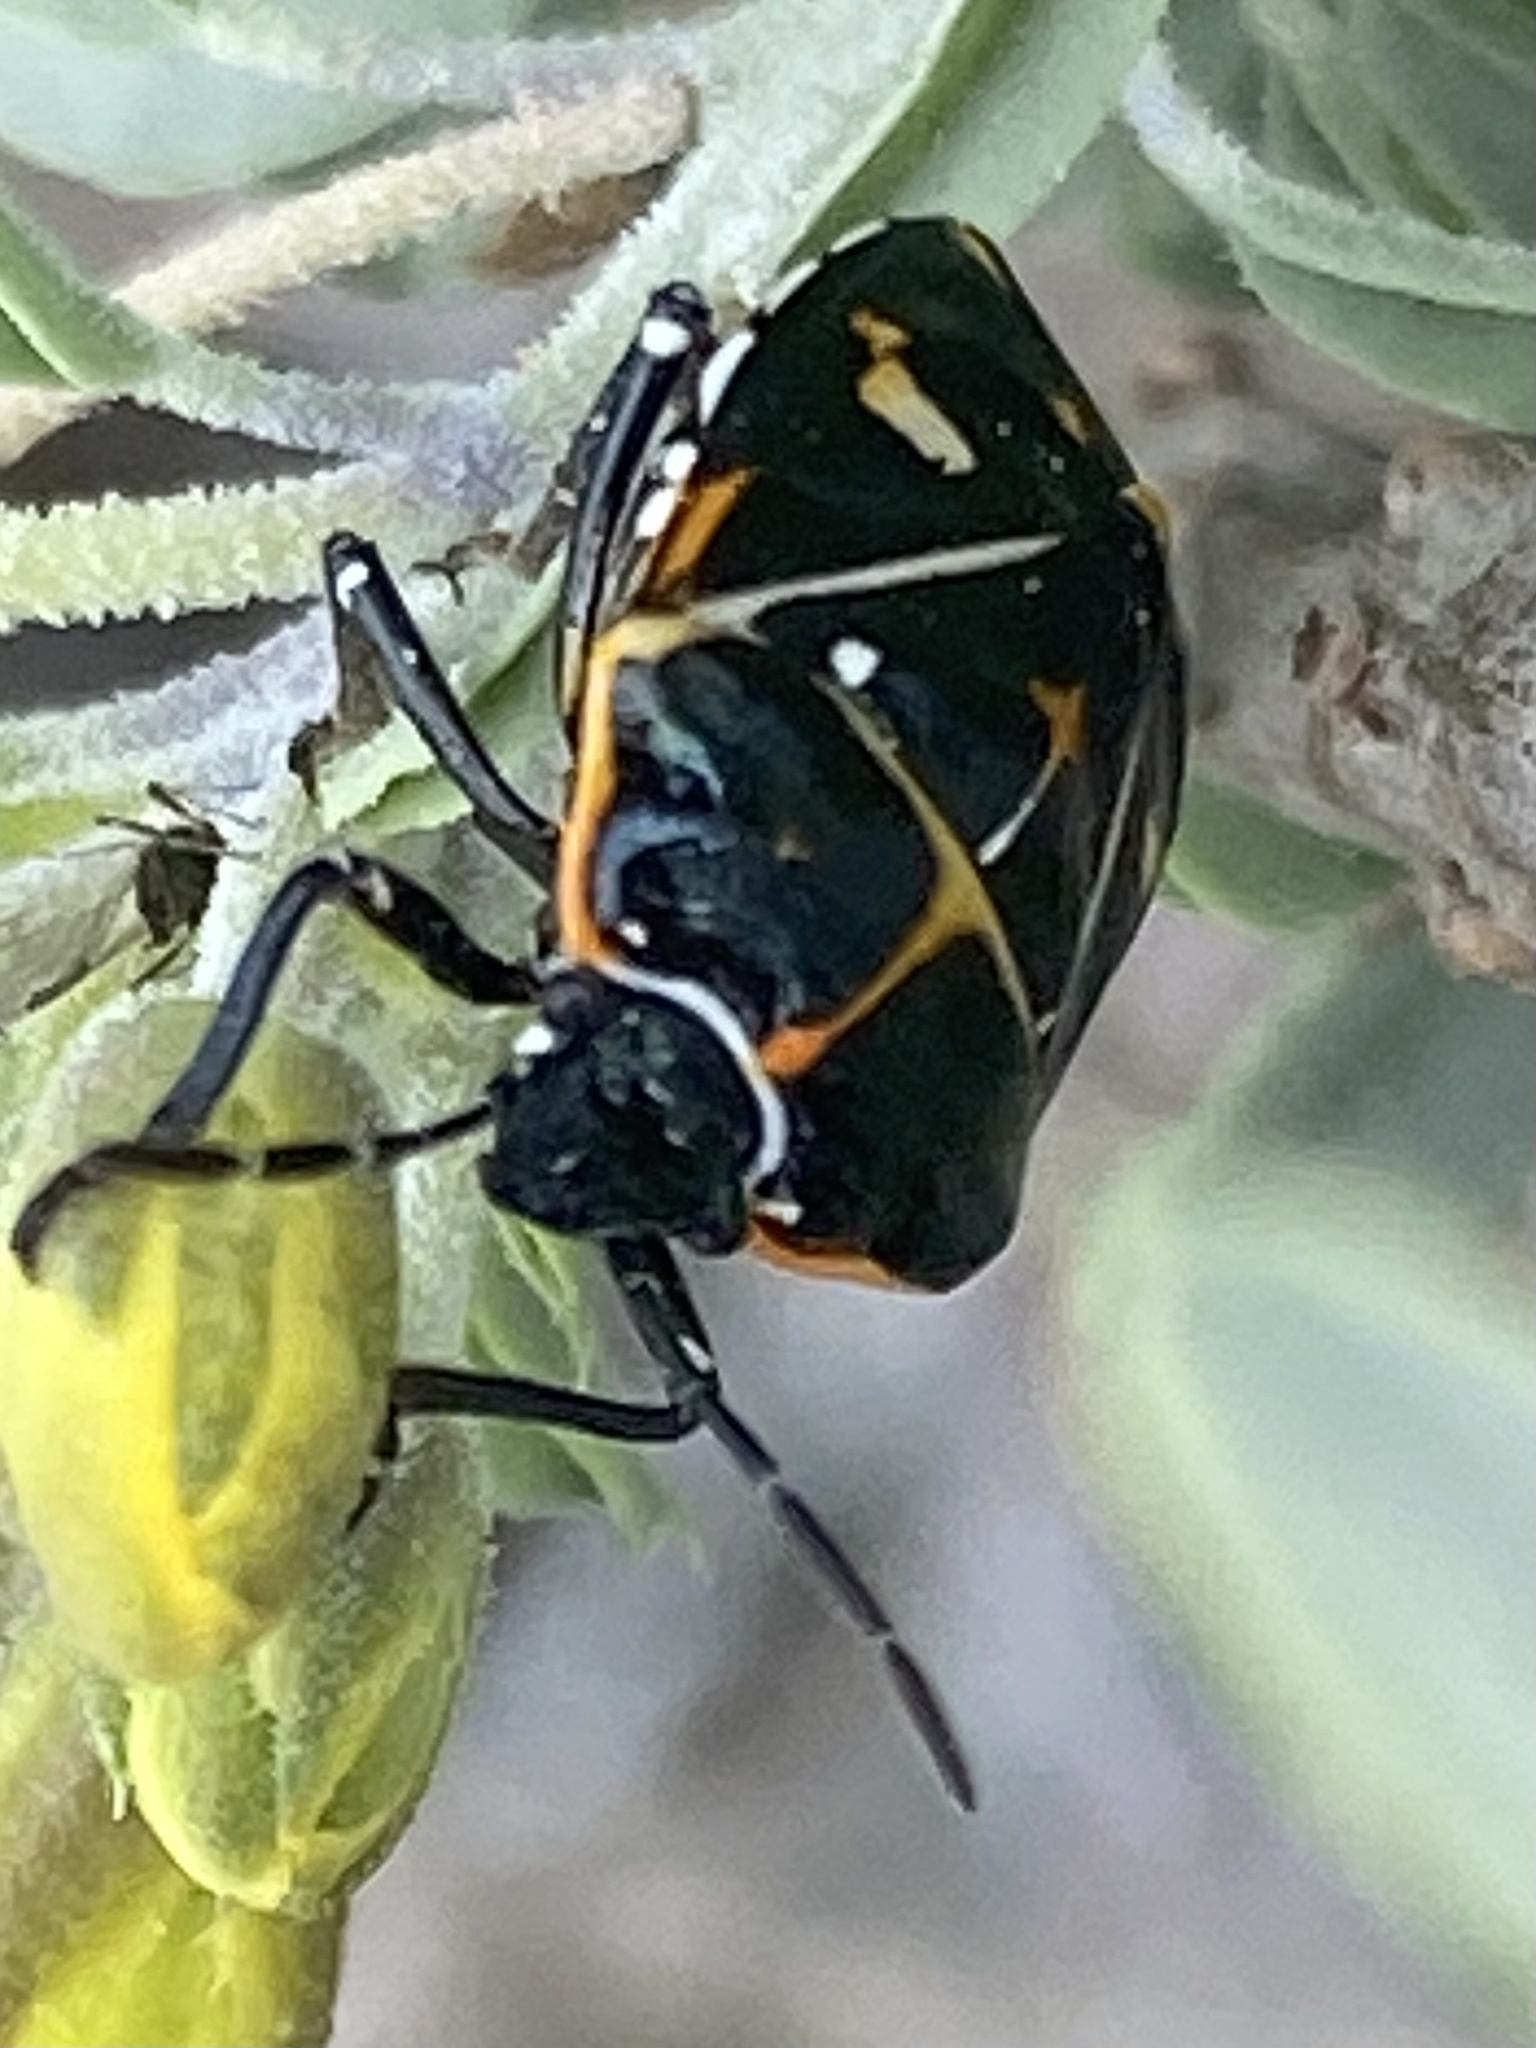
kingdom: Animalia
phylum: Arthropoda
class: Insecta
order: Hemiptera
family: Pentatomidae
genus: Murgantia
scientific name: Murgantia histrionica
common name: Harlequin bug
